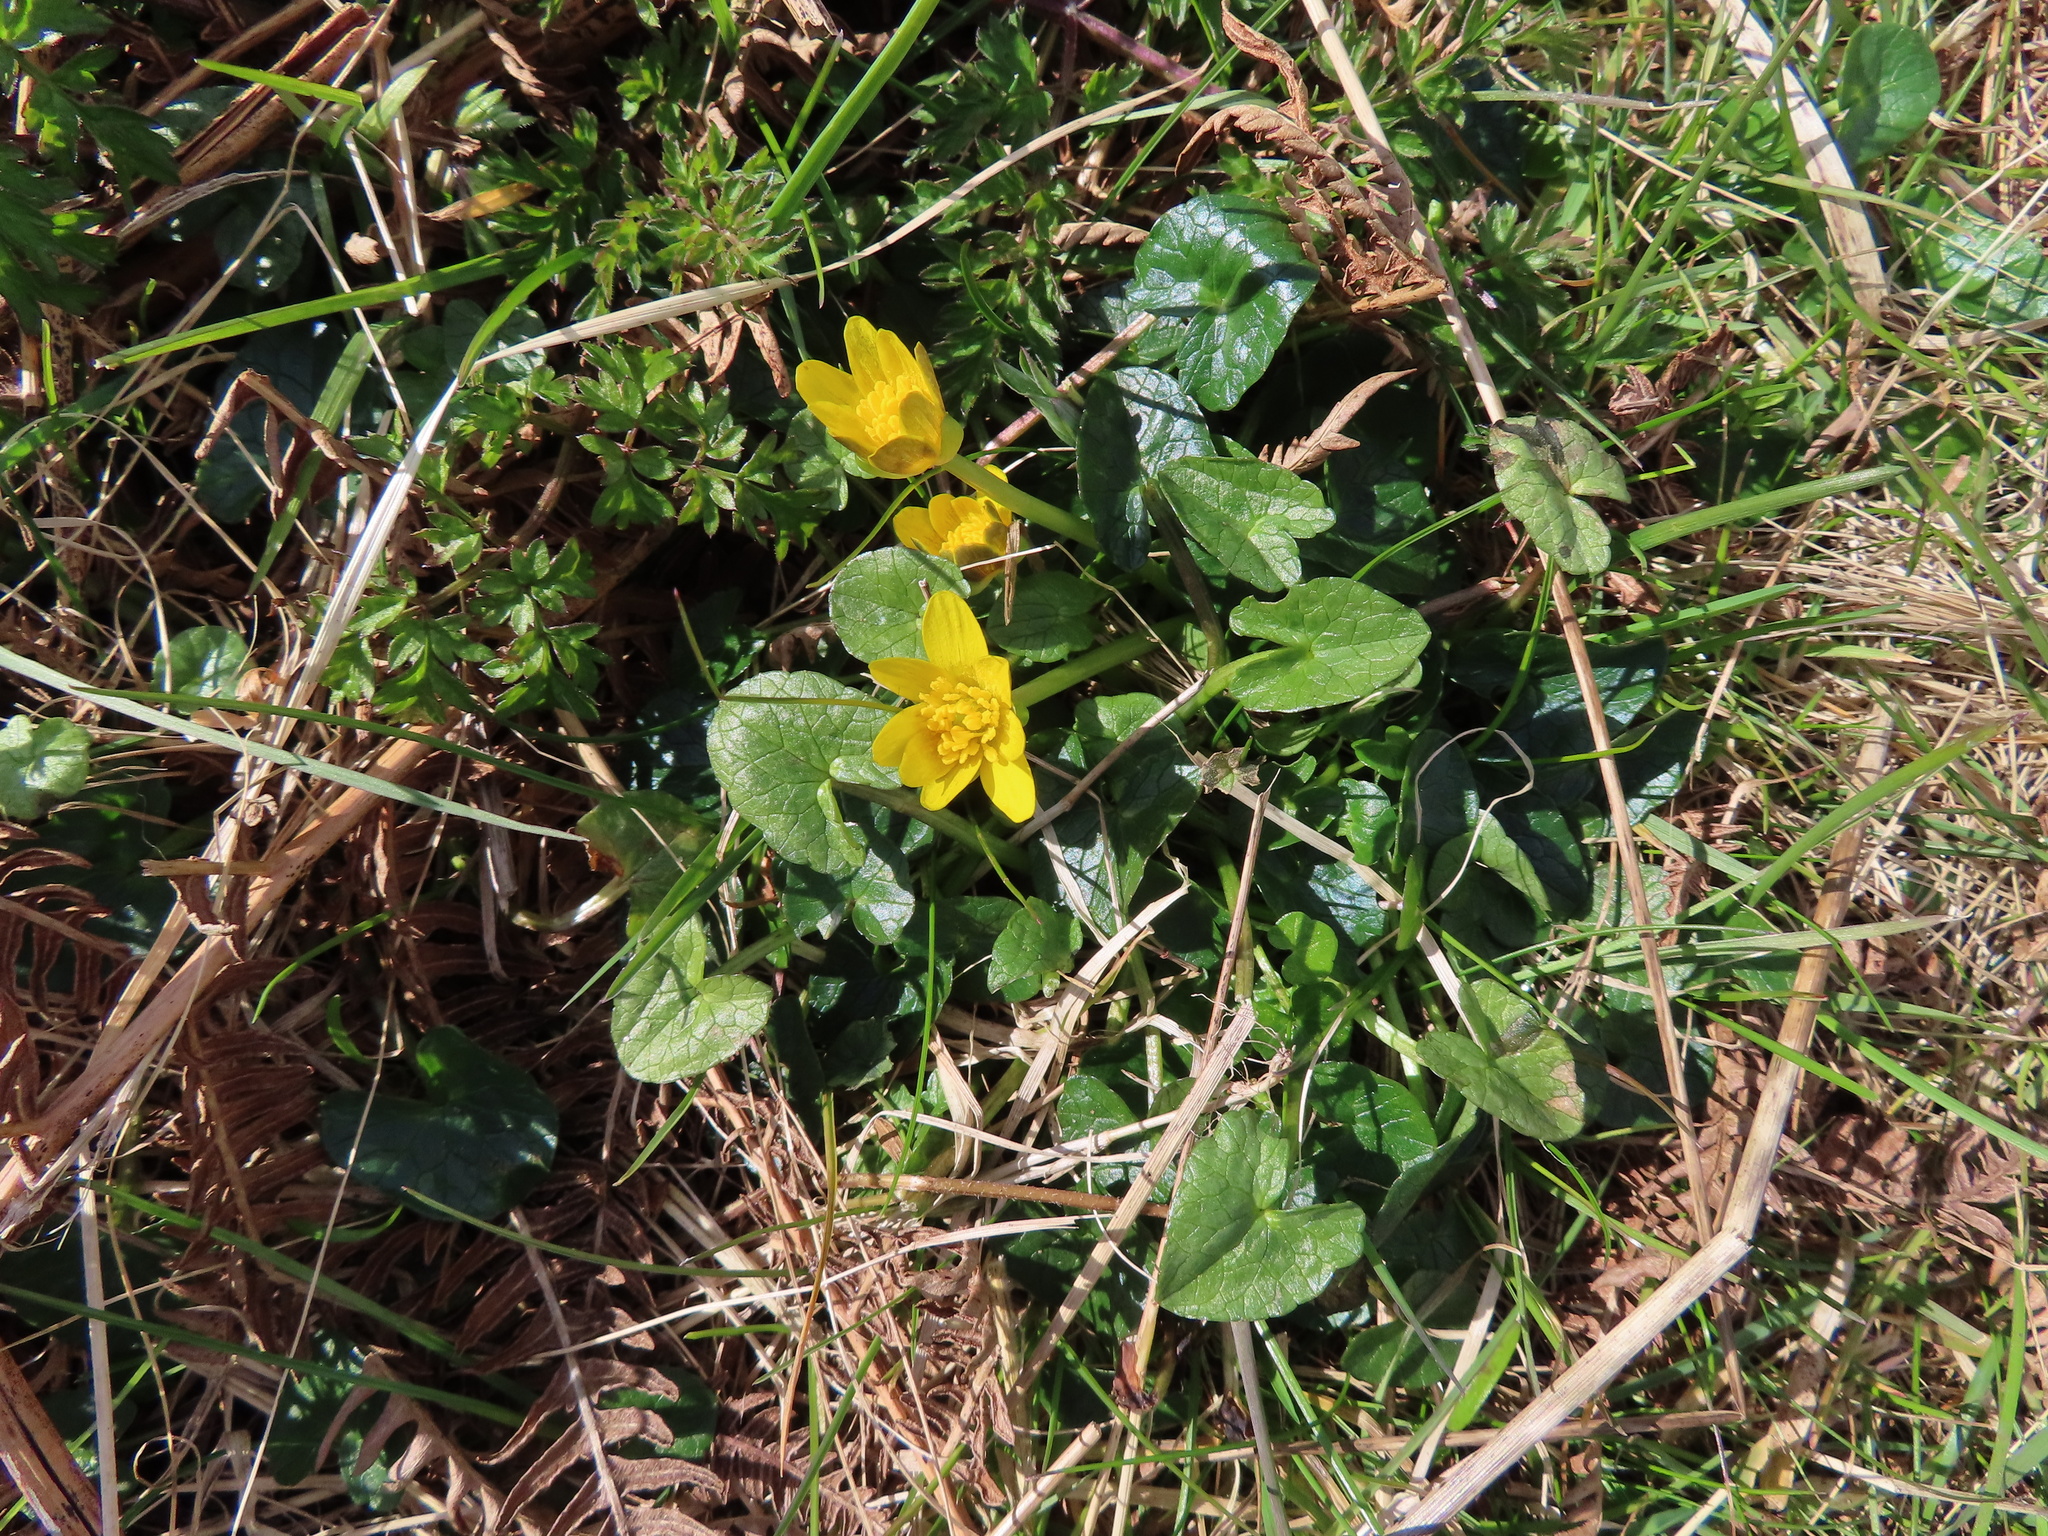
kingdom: Plantae
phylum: Tracheophyta
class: Magnoliopsida
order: Ranunculales
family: Ranunculaceae
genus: Ficaria
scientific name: Ficaria verna
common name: Lesser celandine
